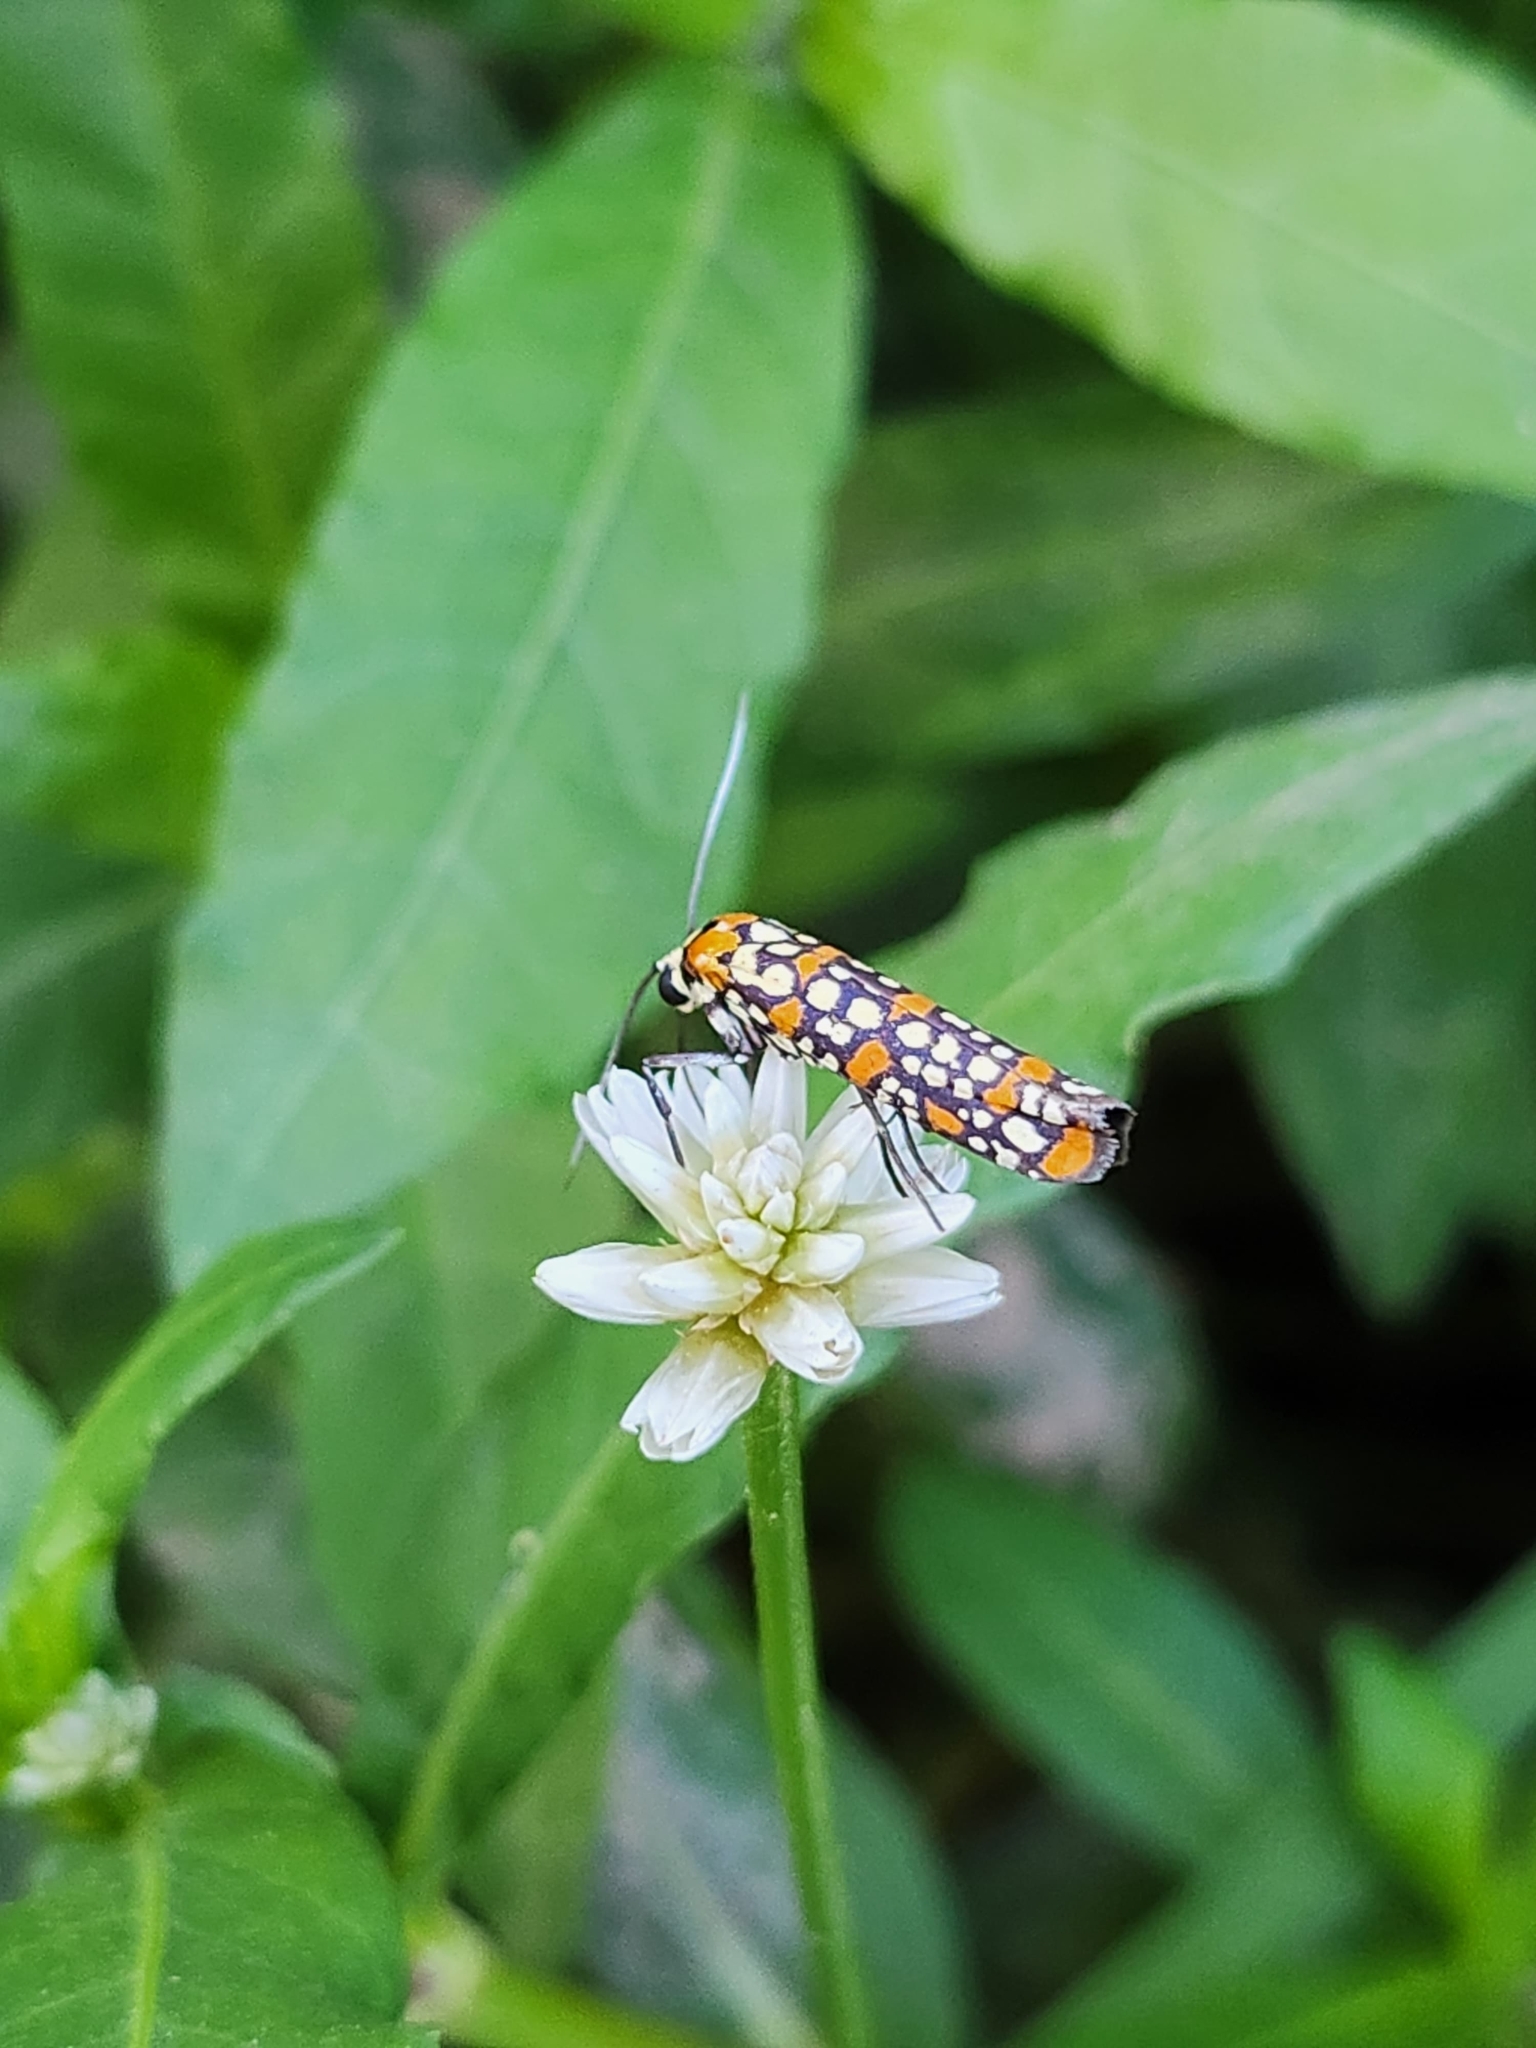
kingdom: Animalia
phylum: Arthropoda
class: Insecta
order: Lepidoptera
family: Attevidae
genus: Atteva
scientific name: Atteva punctella
